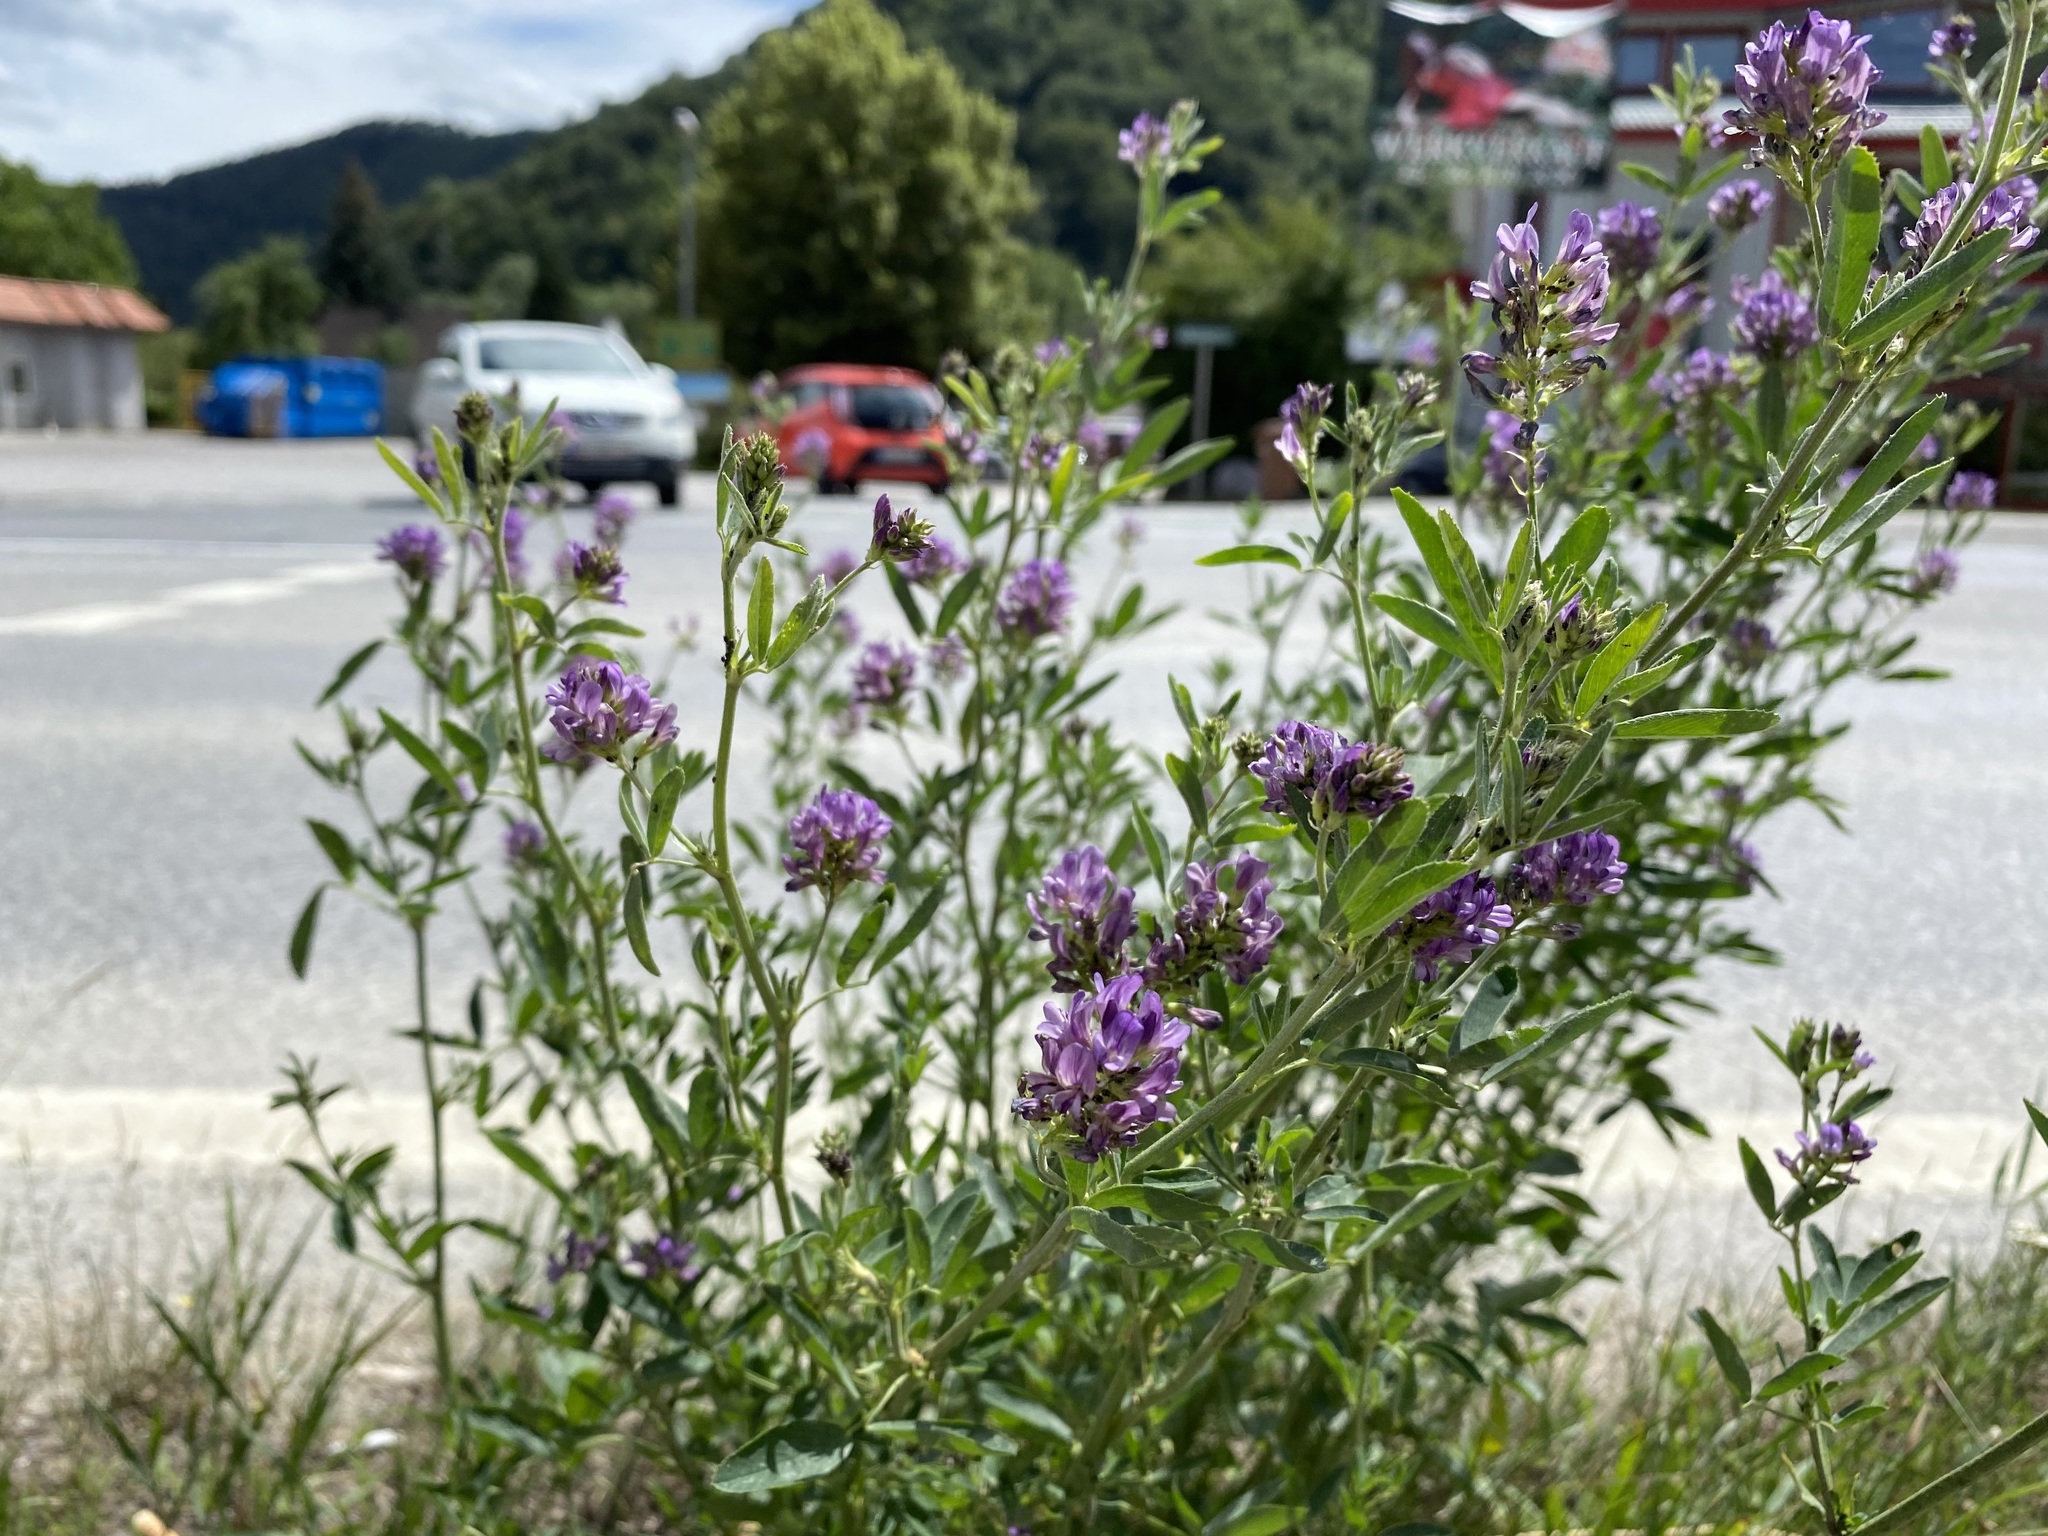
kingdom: Plantae
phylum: Tracheophyta
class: Magnoliopsida
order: Fabales
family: Fabaceae
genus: Medicago
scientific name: Medicago sativa
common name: Alfalfa
